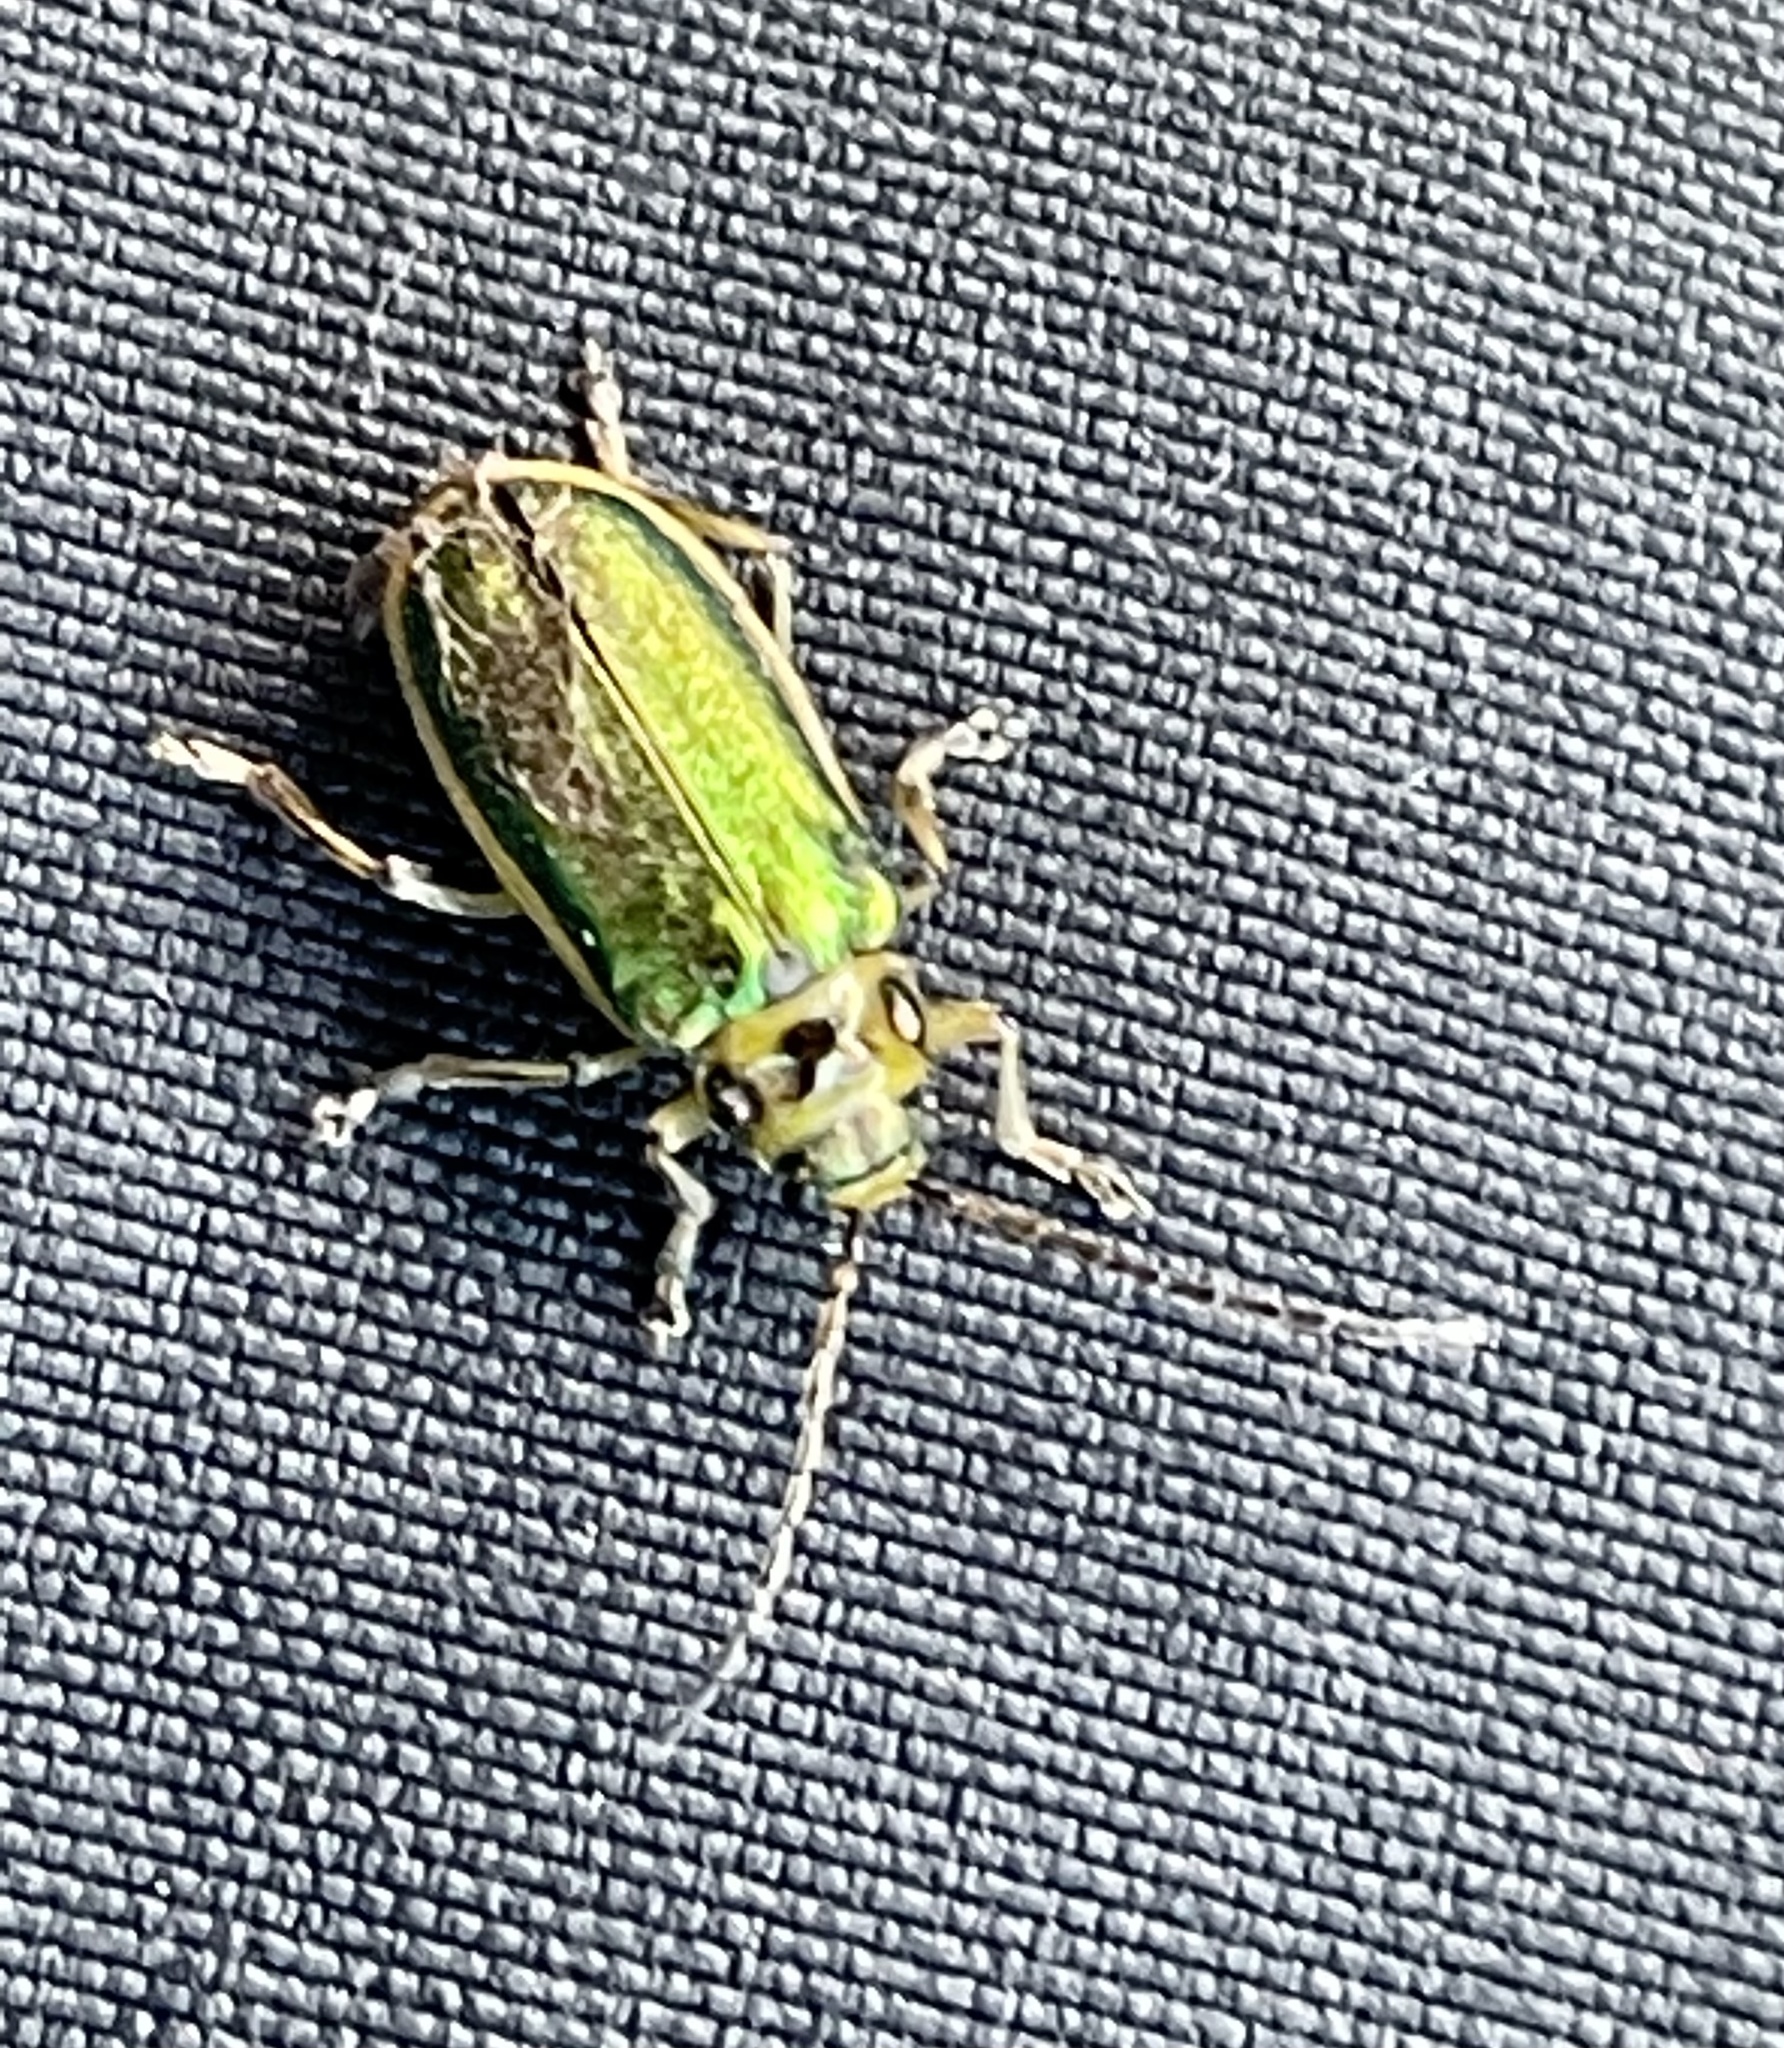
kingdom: Animalia
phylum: Arthropoda
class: Insecta
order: Coleoptera
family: Chrysomelidae
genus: Trirhabda
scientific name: Trirhabda flavolimbata
